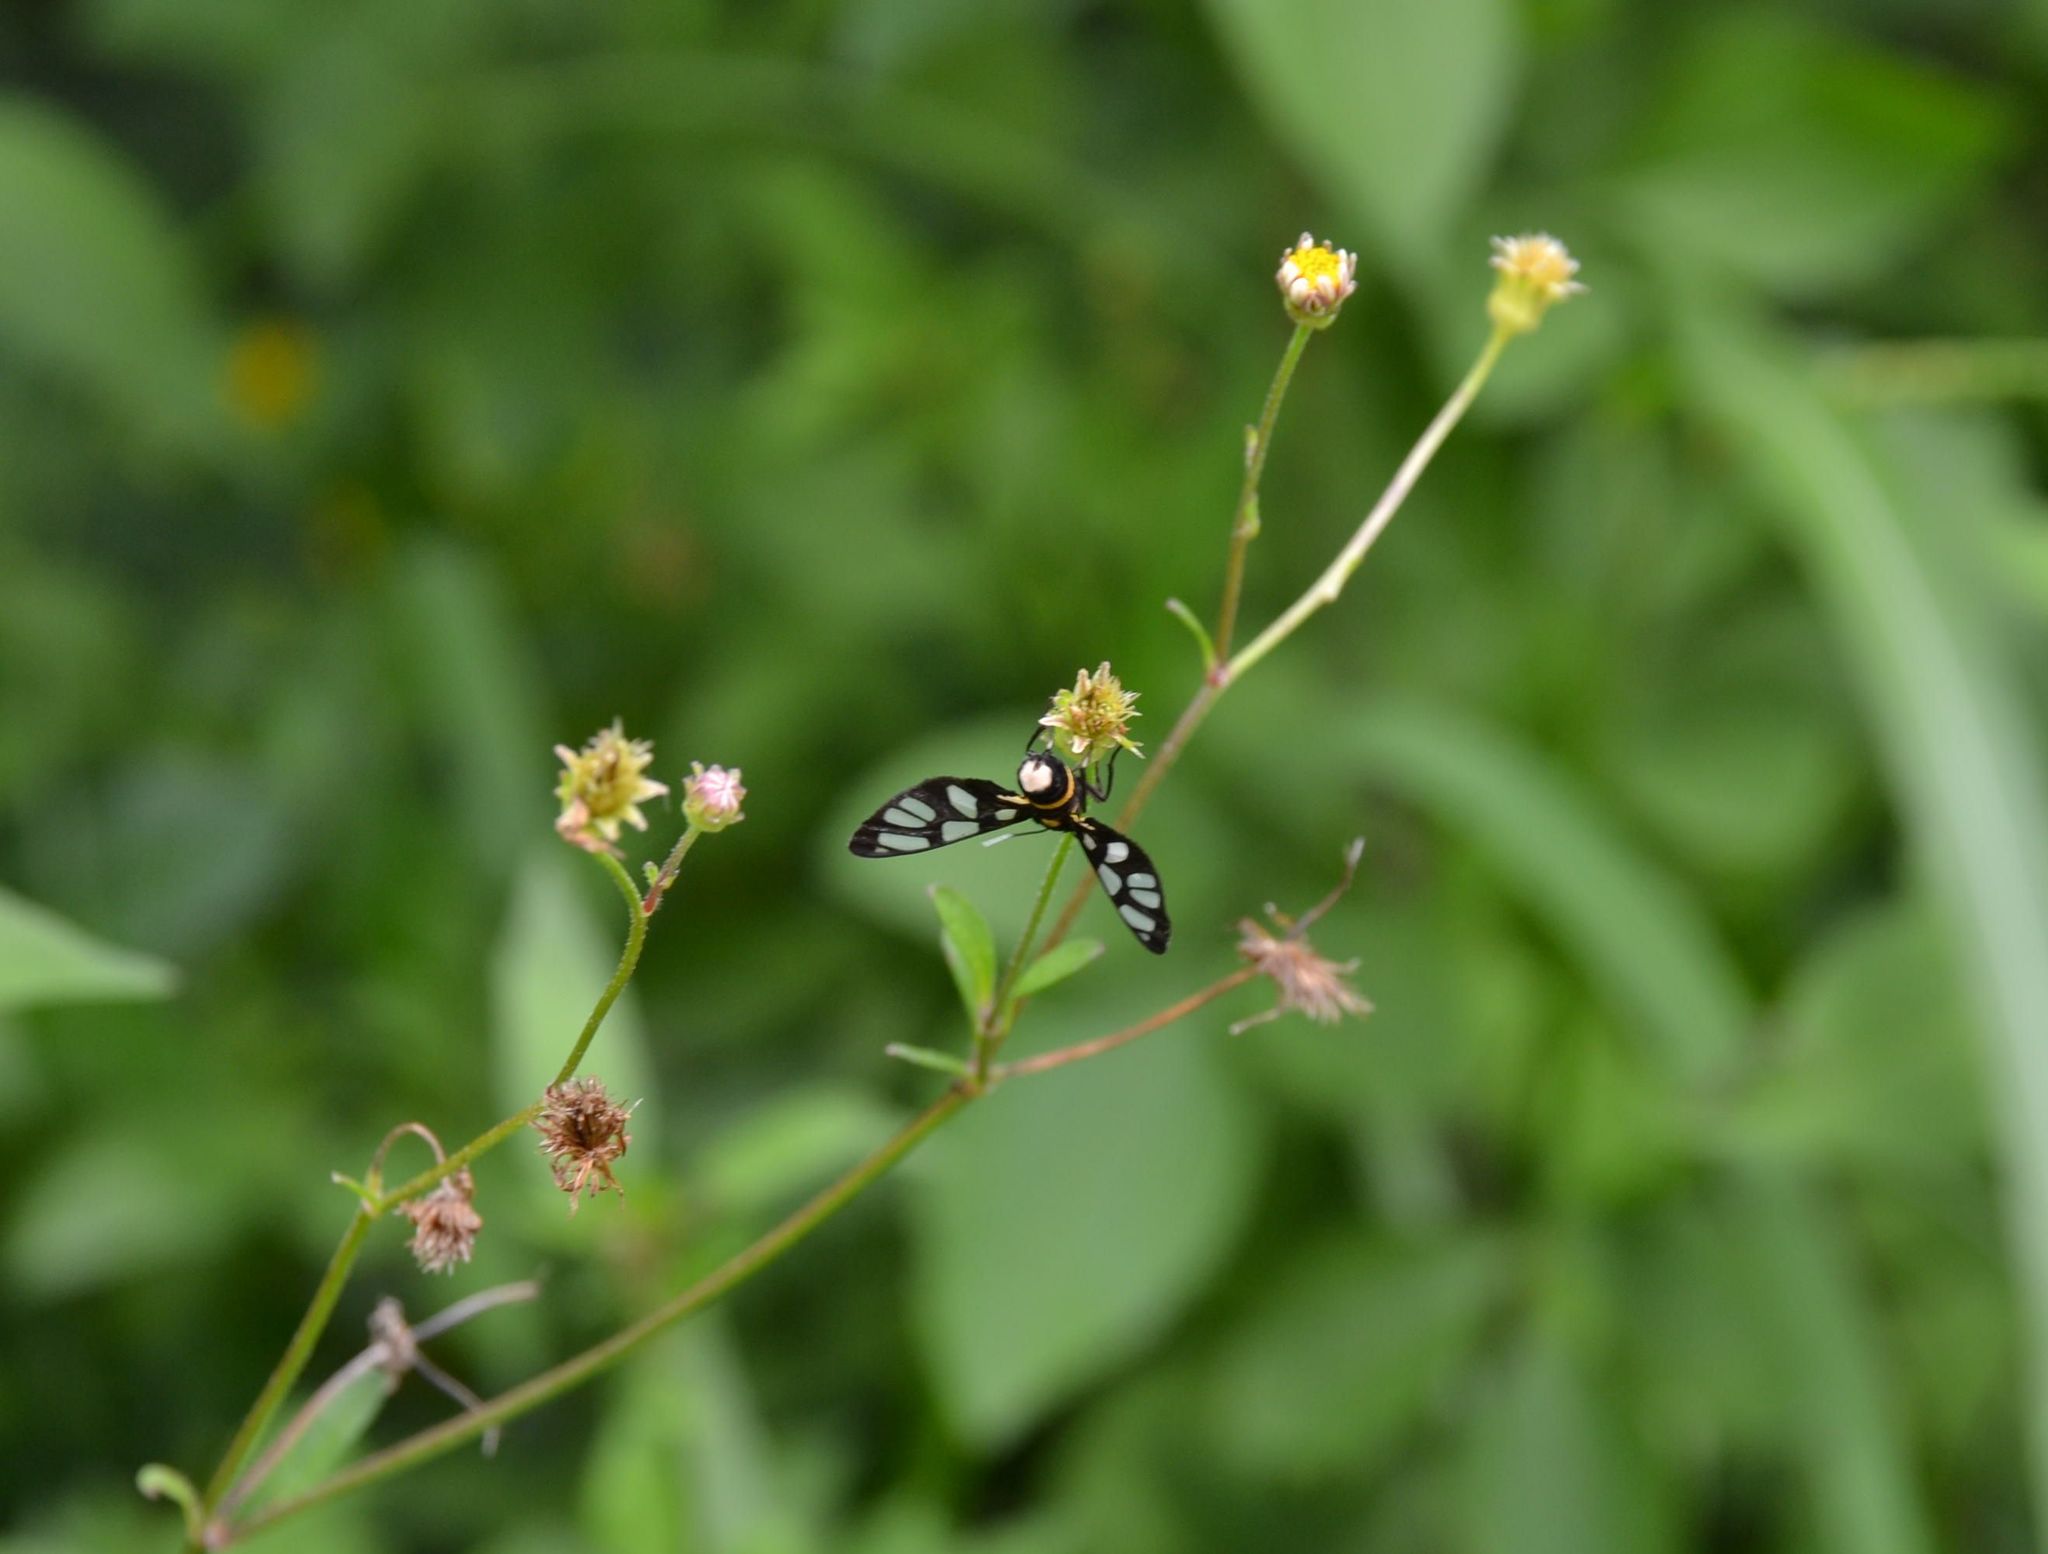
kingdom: Animalia
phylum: Arthropoda
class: Insecta
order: Lepidoptera
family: Erebidae
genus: Amata
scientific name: Amata sperbius
